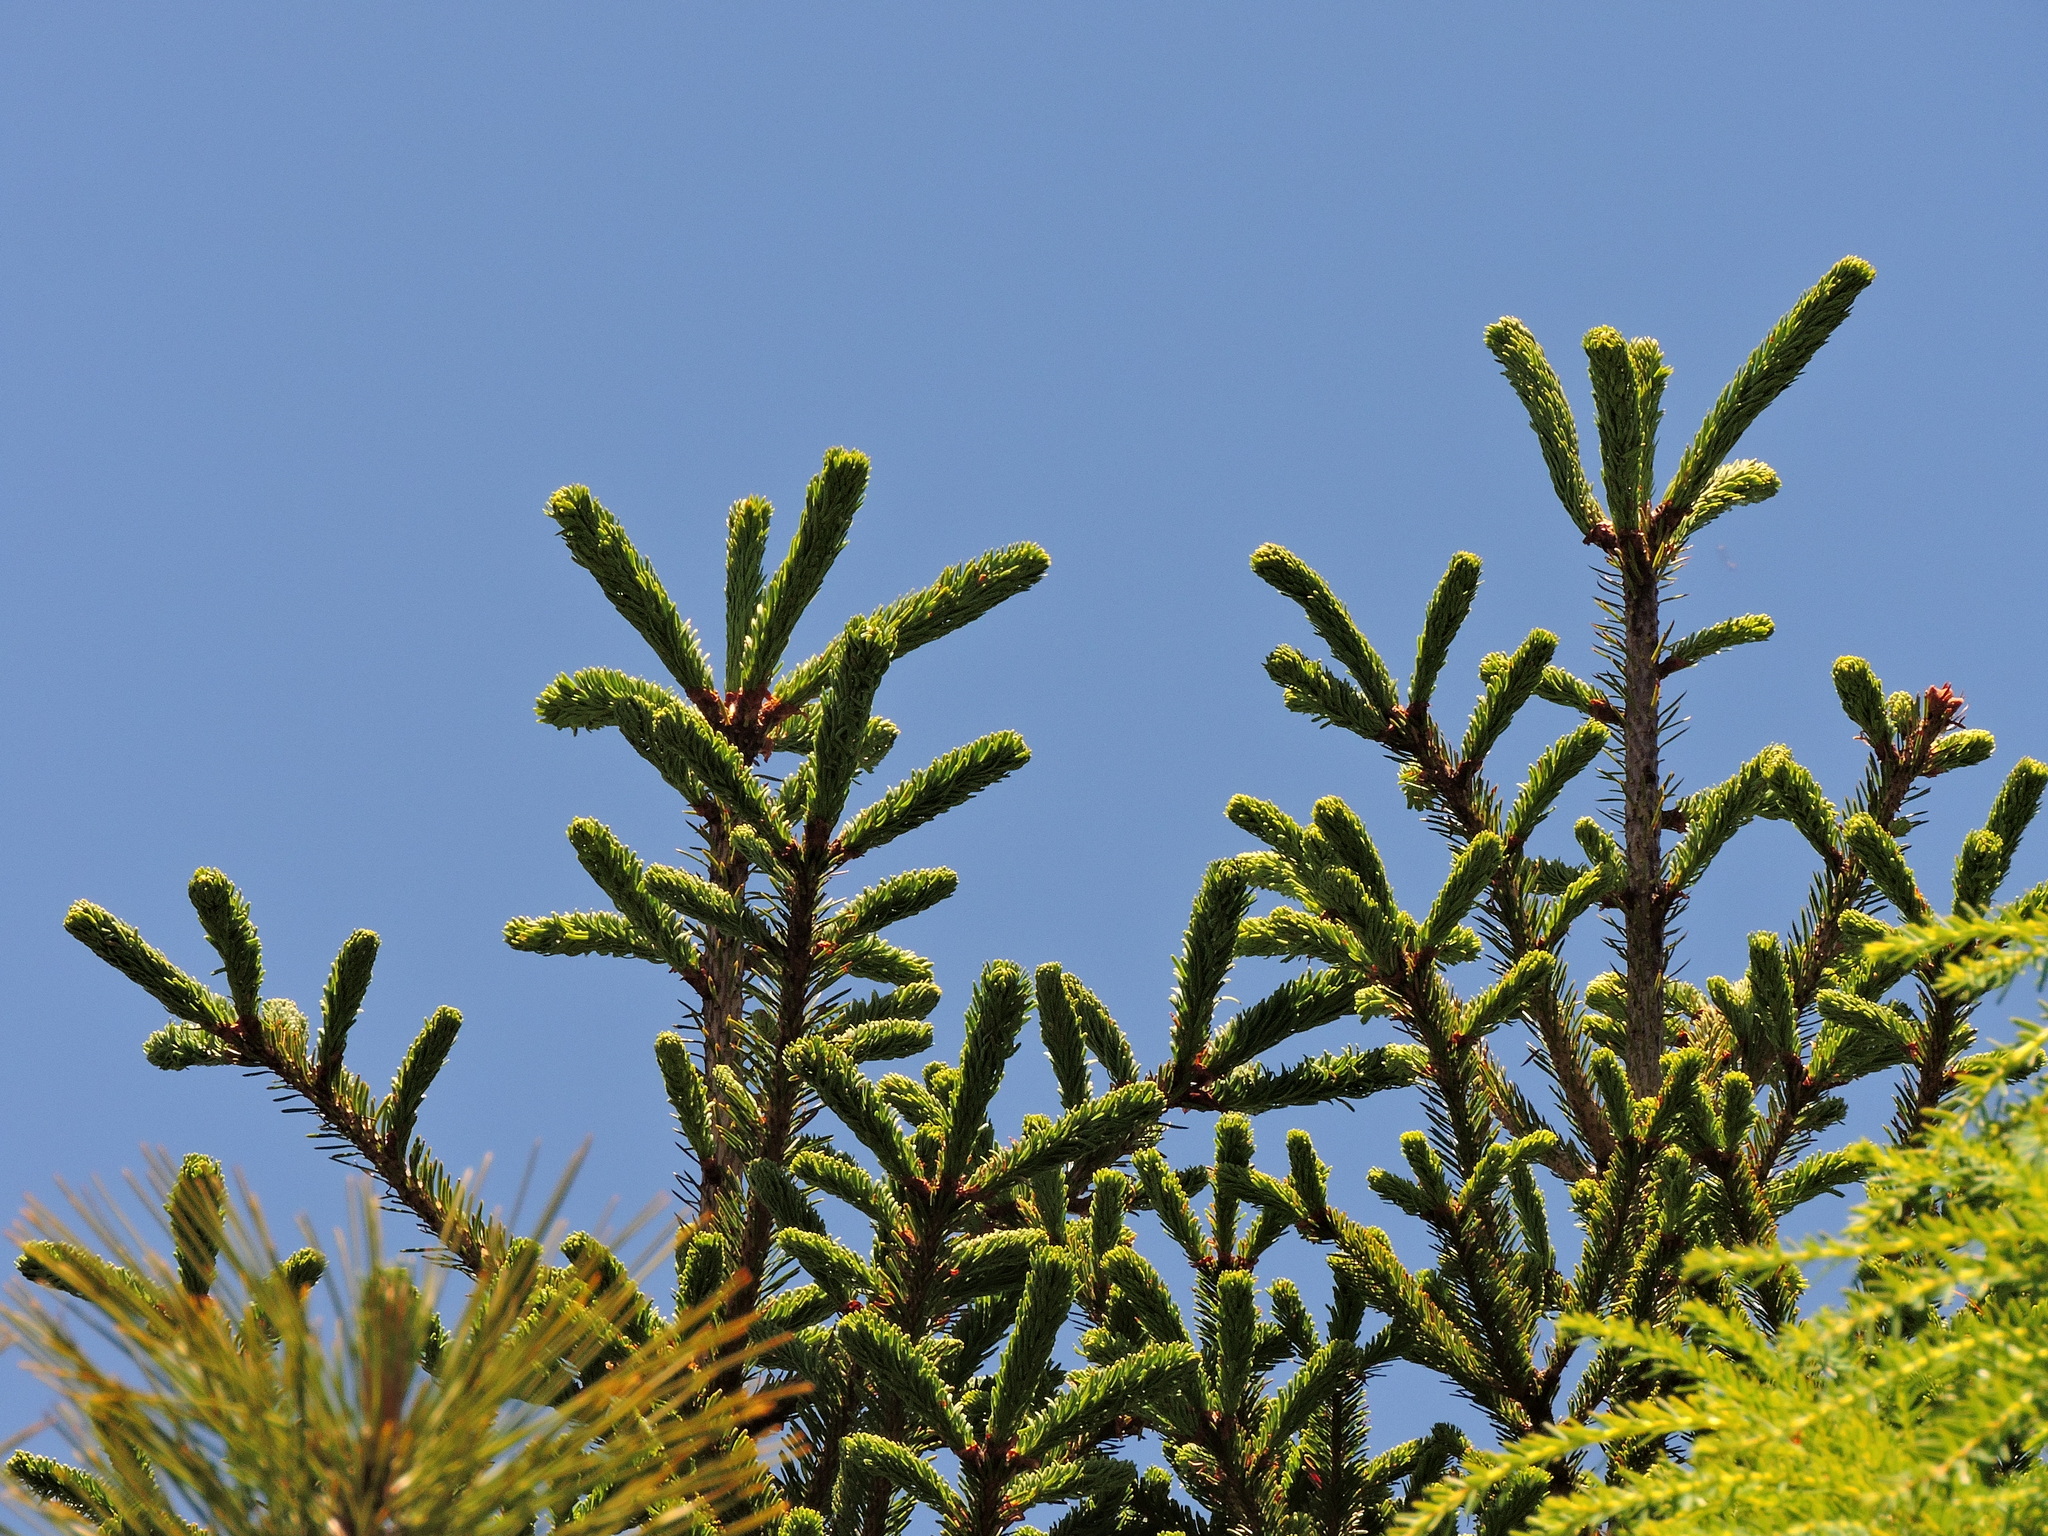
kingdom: Plantae
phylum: Tracheophyta
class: Pinopsida
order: Pinales
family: Pinaceae
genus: Abies
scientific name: Abies kawakamii
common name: Taiwan fir
